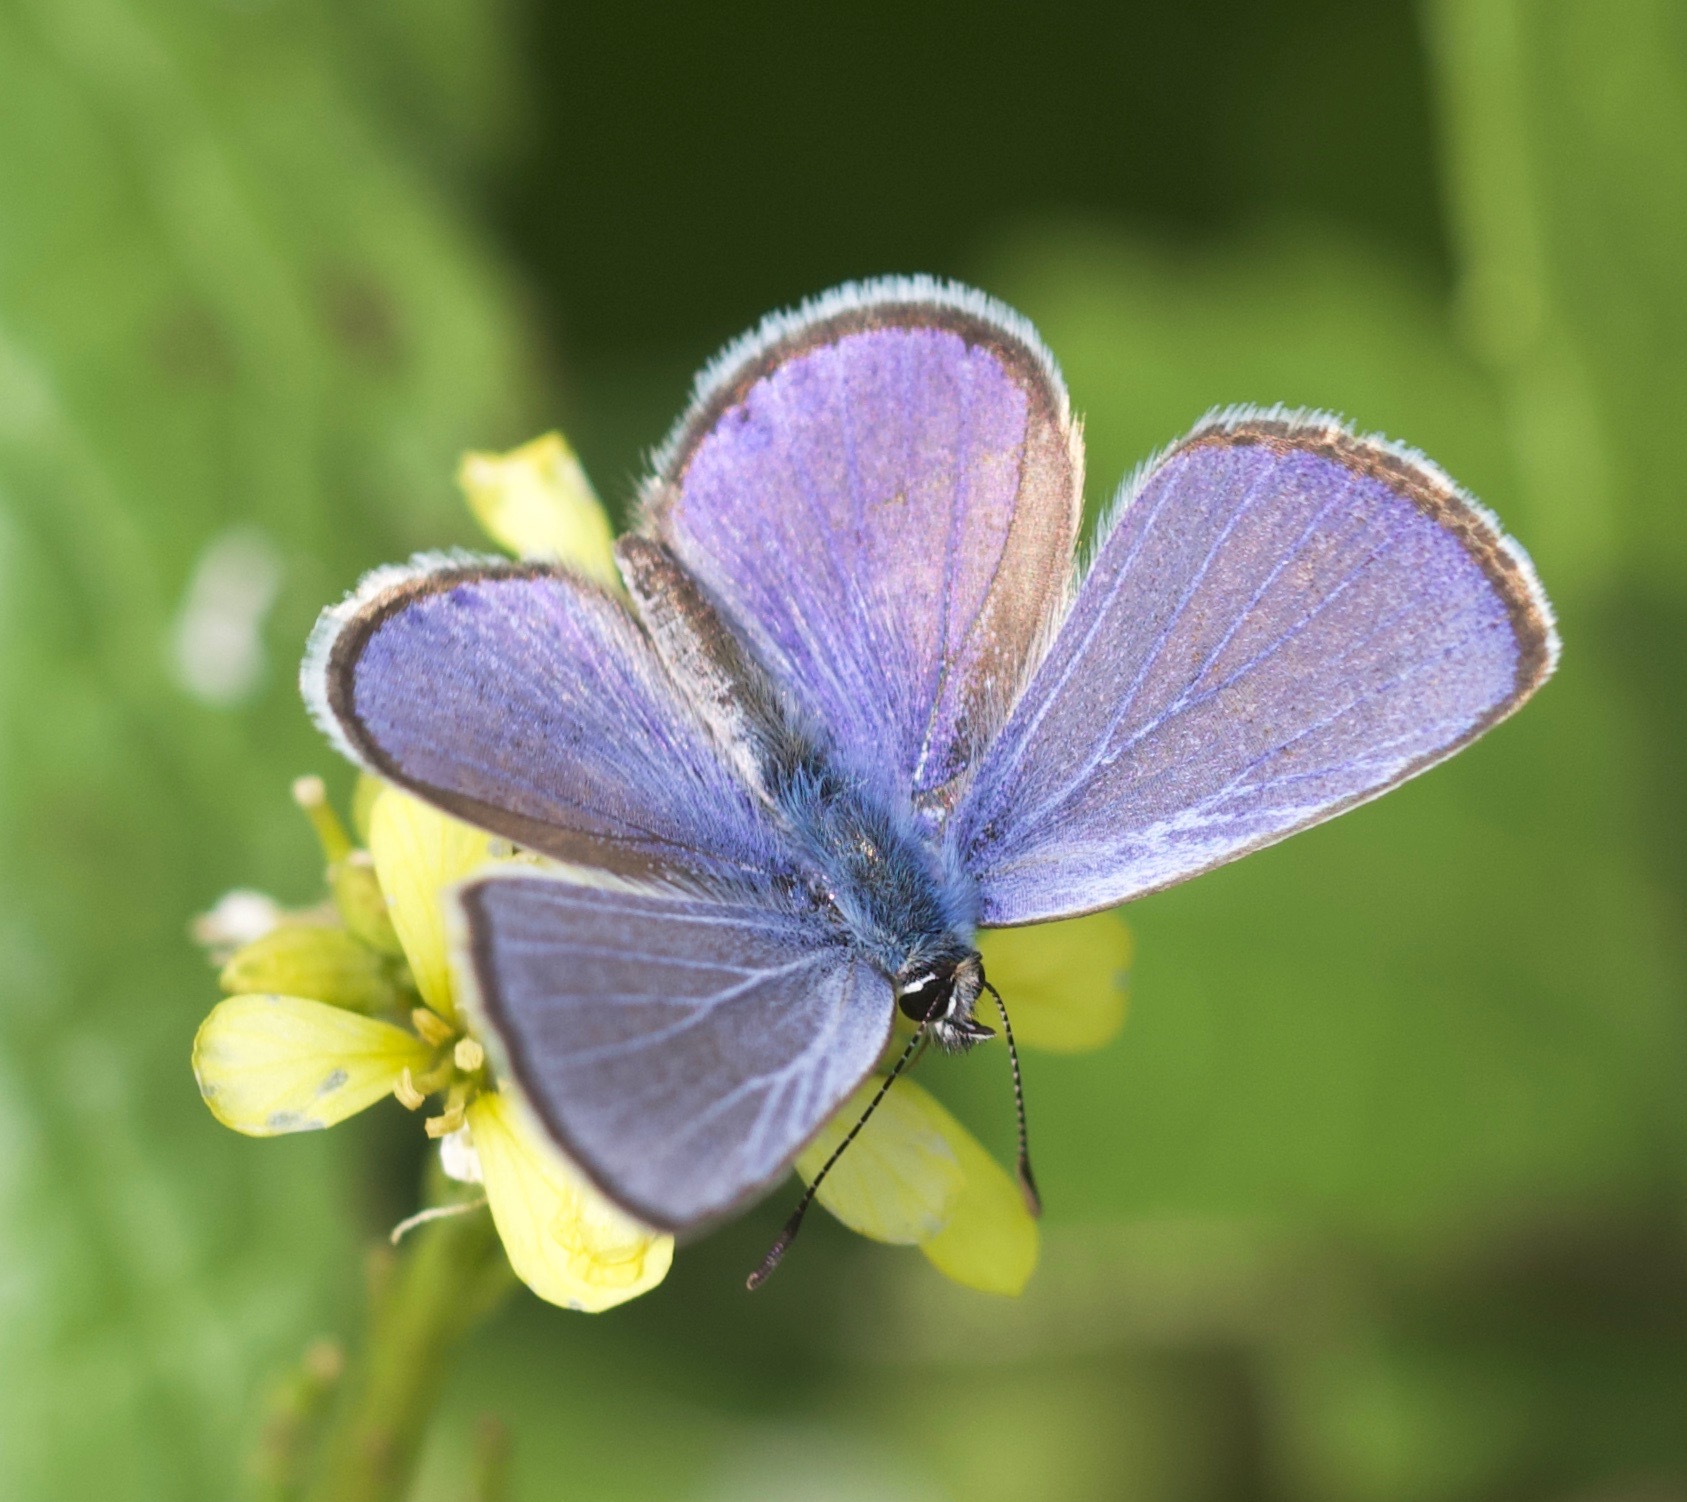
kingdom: Animalia
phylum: Arthropoda
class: Insecta
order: Lepidoptera
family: Lycaenidae
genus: Hemiargus
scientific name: Hemiargus ceraunus
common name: Ceraunus blue
